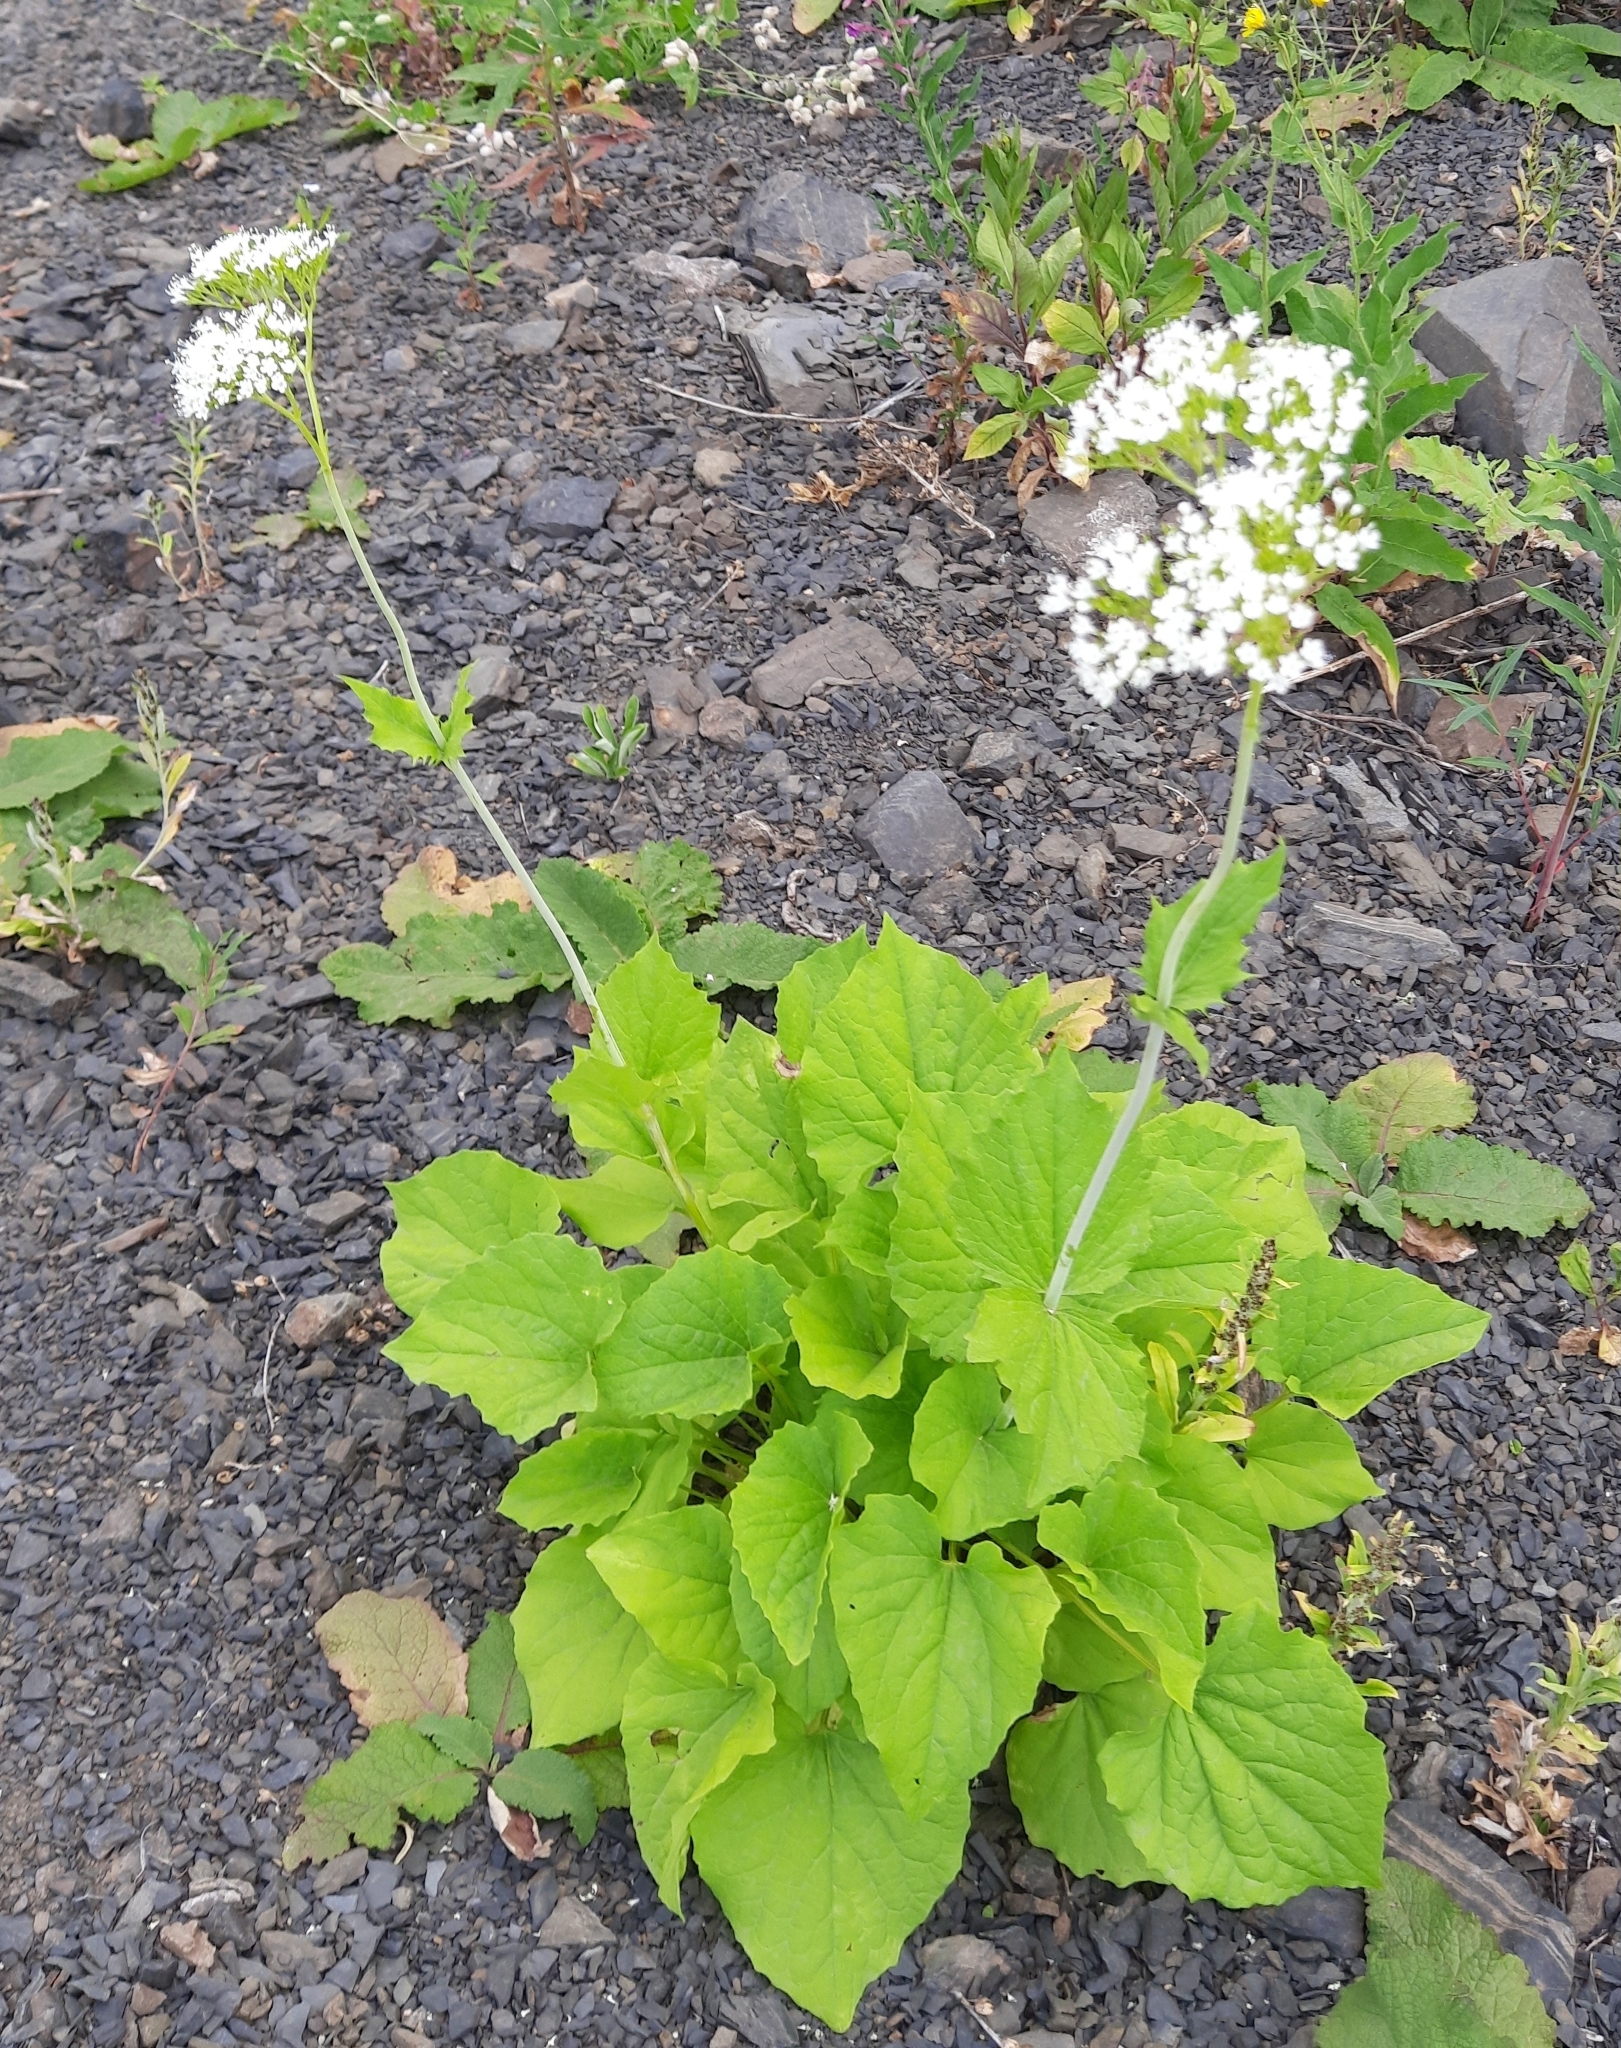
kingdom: Plantae
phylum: Tracheophyta
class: Magnoliopsida
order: Dipsacales
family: Caprifoliaceae
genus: Valeriana
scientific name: Valeriana alliariifolia
